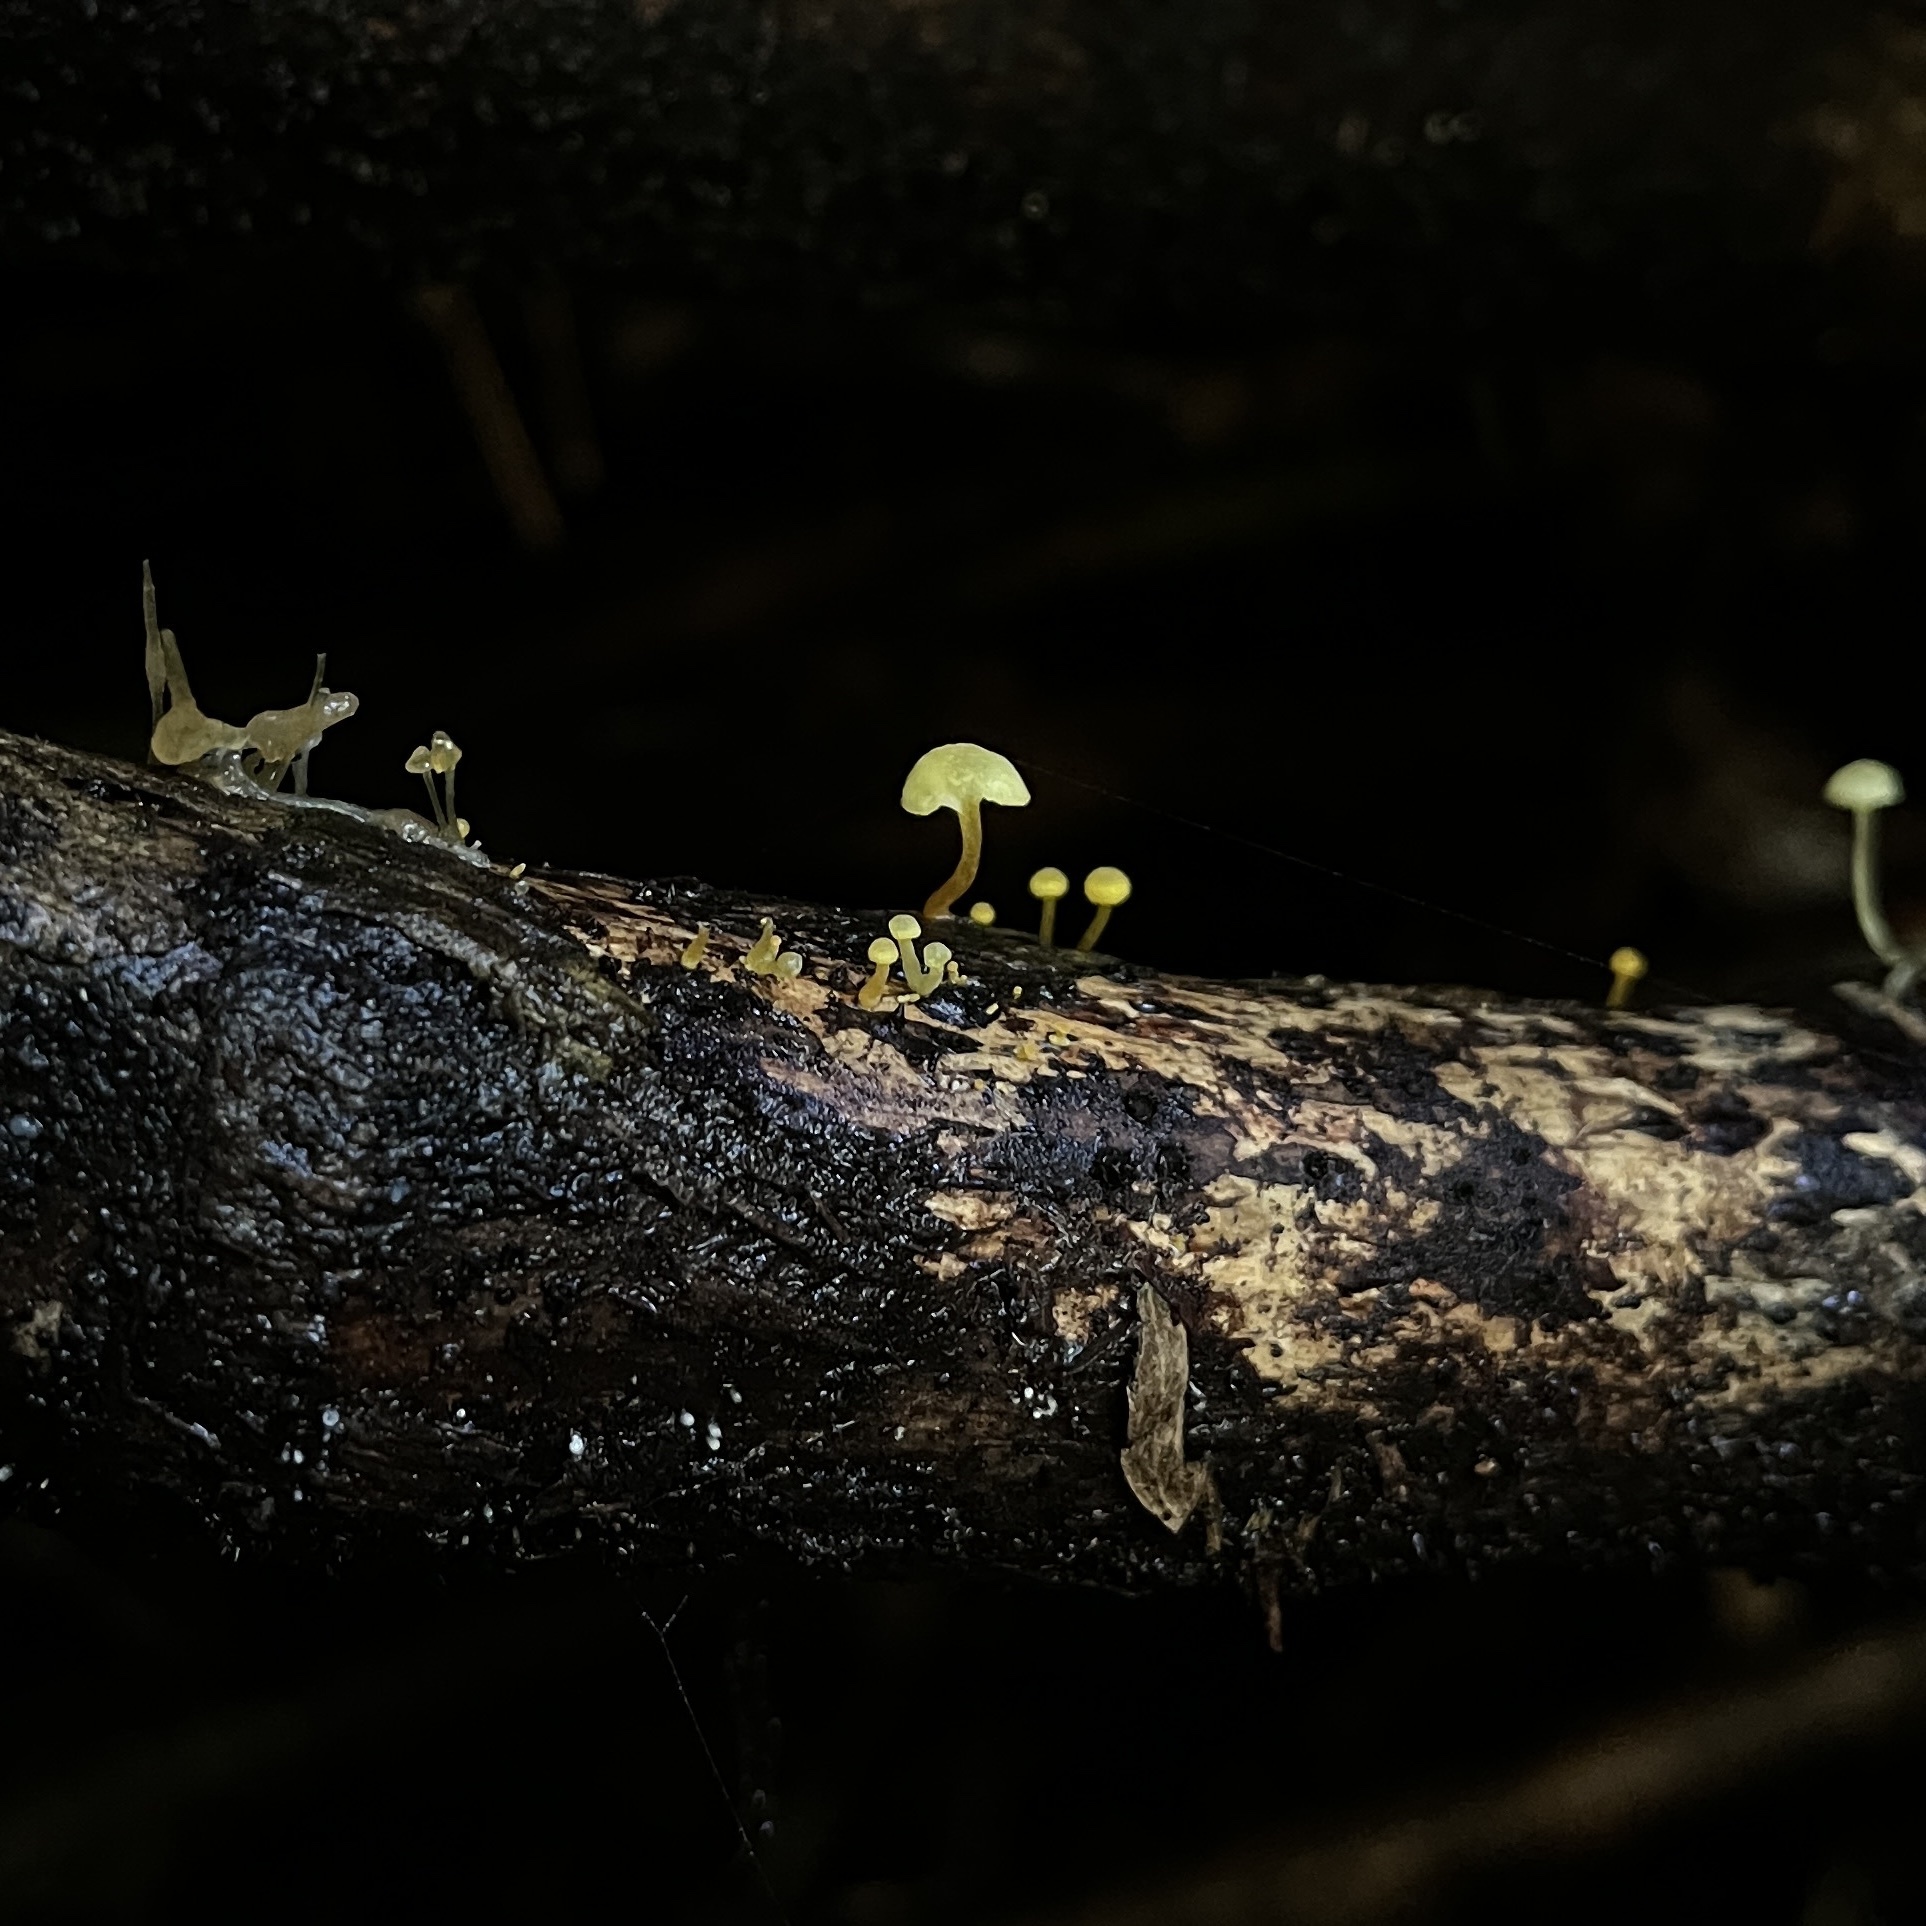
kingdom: Fungi
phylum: Basidiomycota
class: Agaricomycetes
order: Agaricales
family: Mycenaceae
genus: Mycena
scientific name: Mycena chusqueophila
